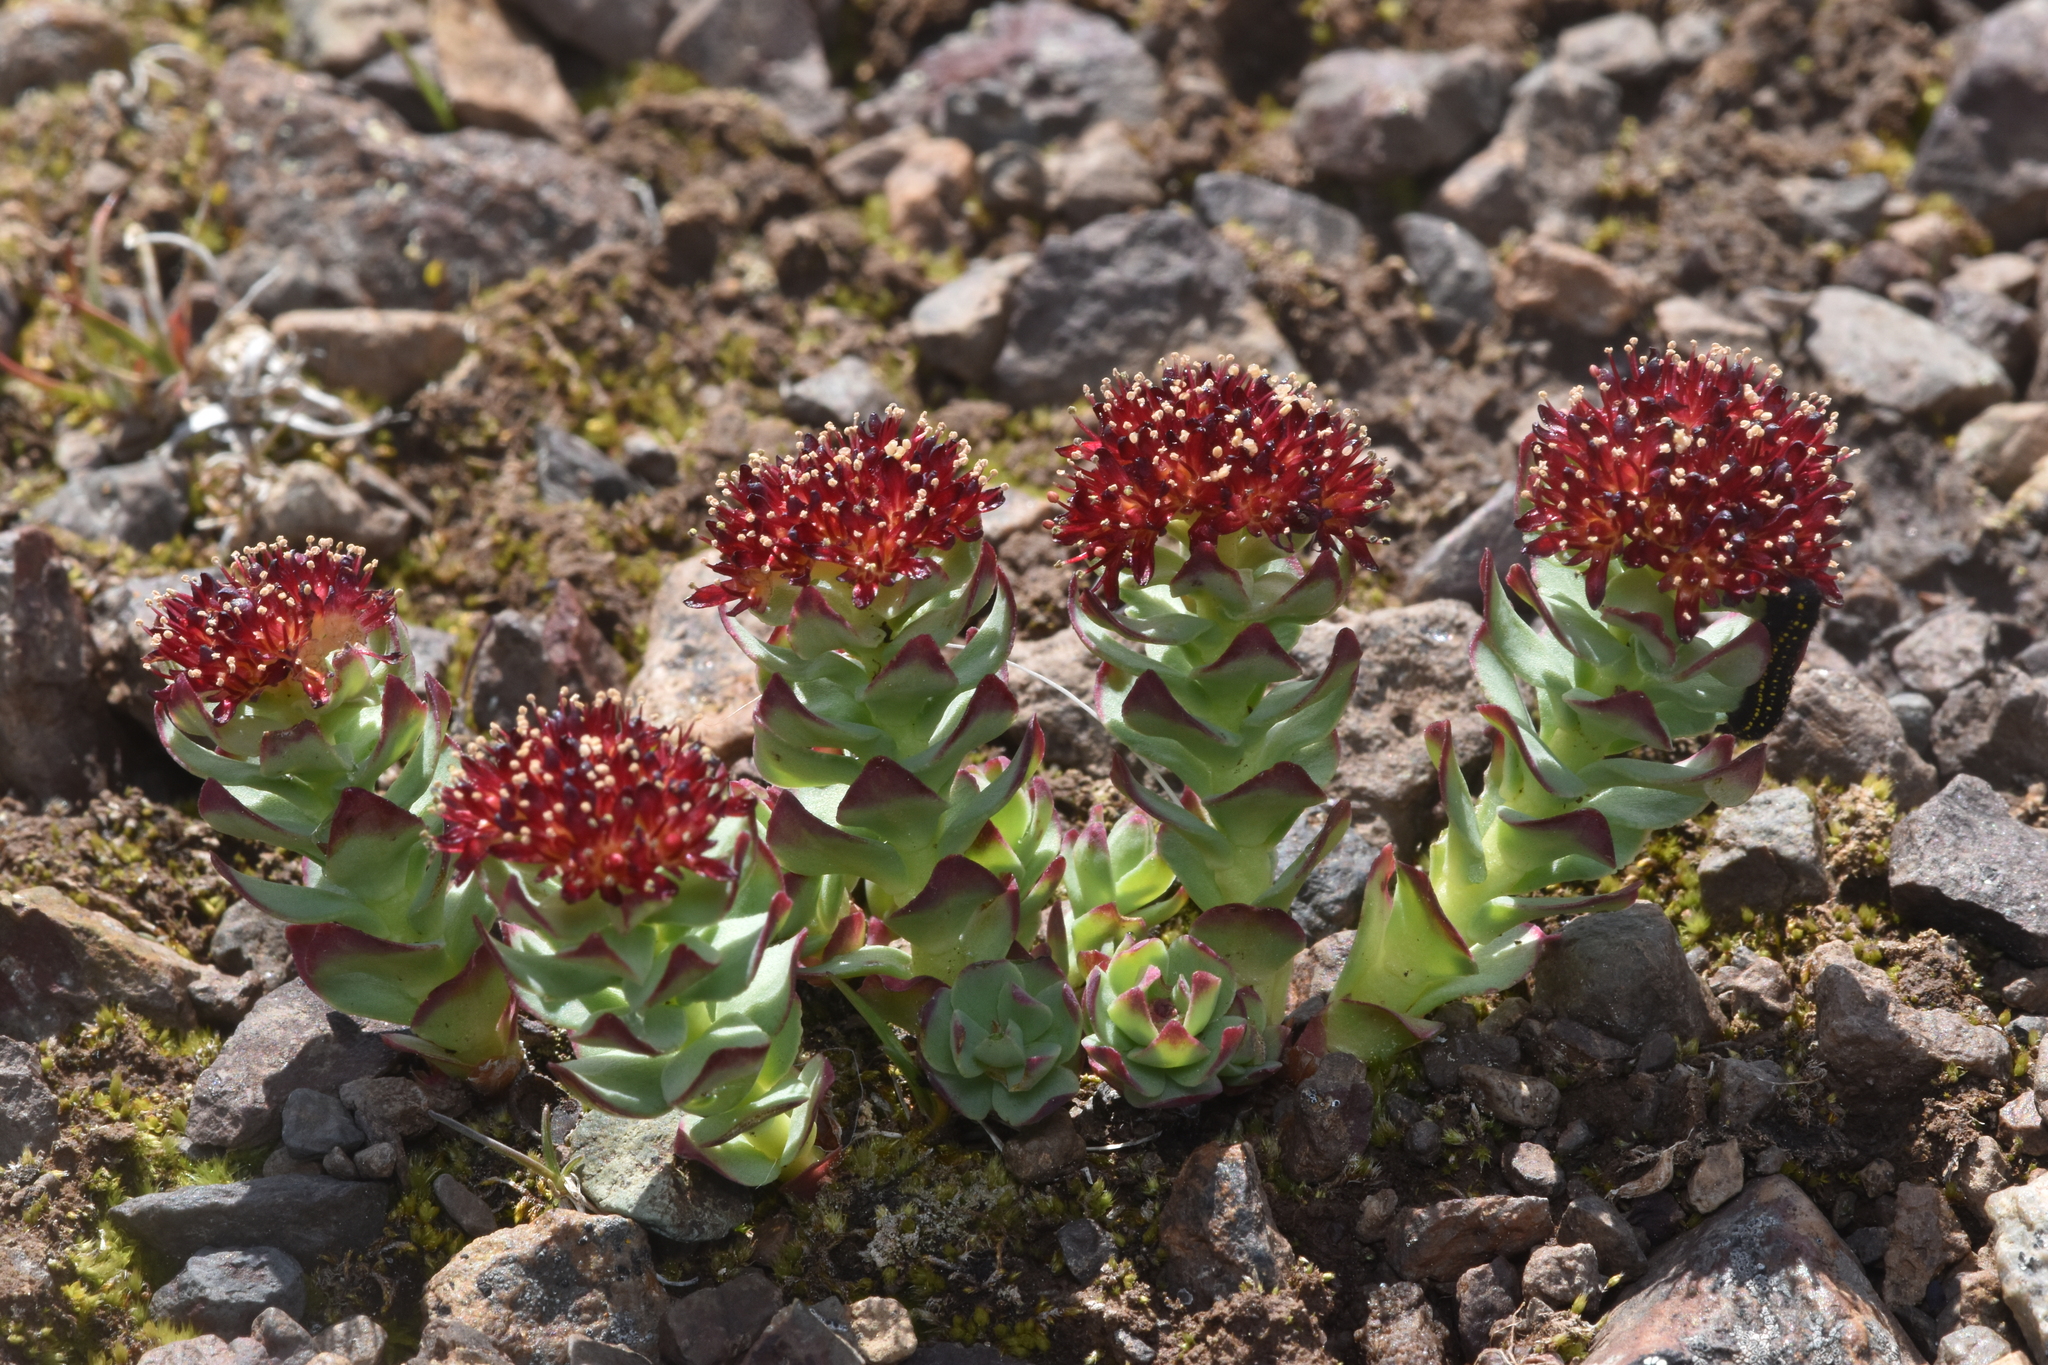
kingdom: Plantae
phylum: Tracheophyta
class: Magnoliopsida
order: Saxifragales
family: Crassulaceae
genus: Rhodiola
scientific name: Rhodiola integrifolia
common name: Western roseroot
